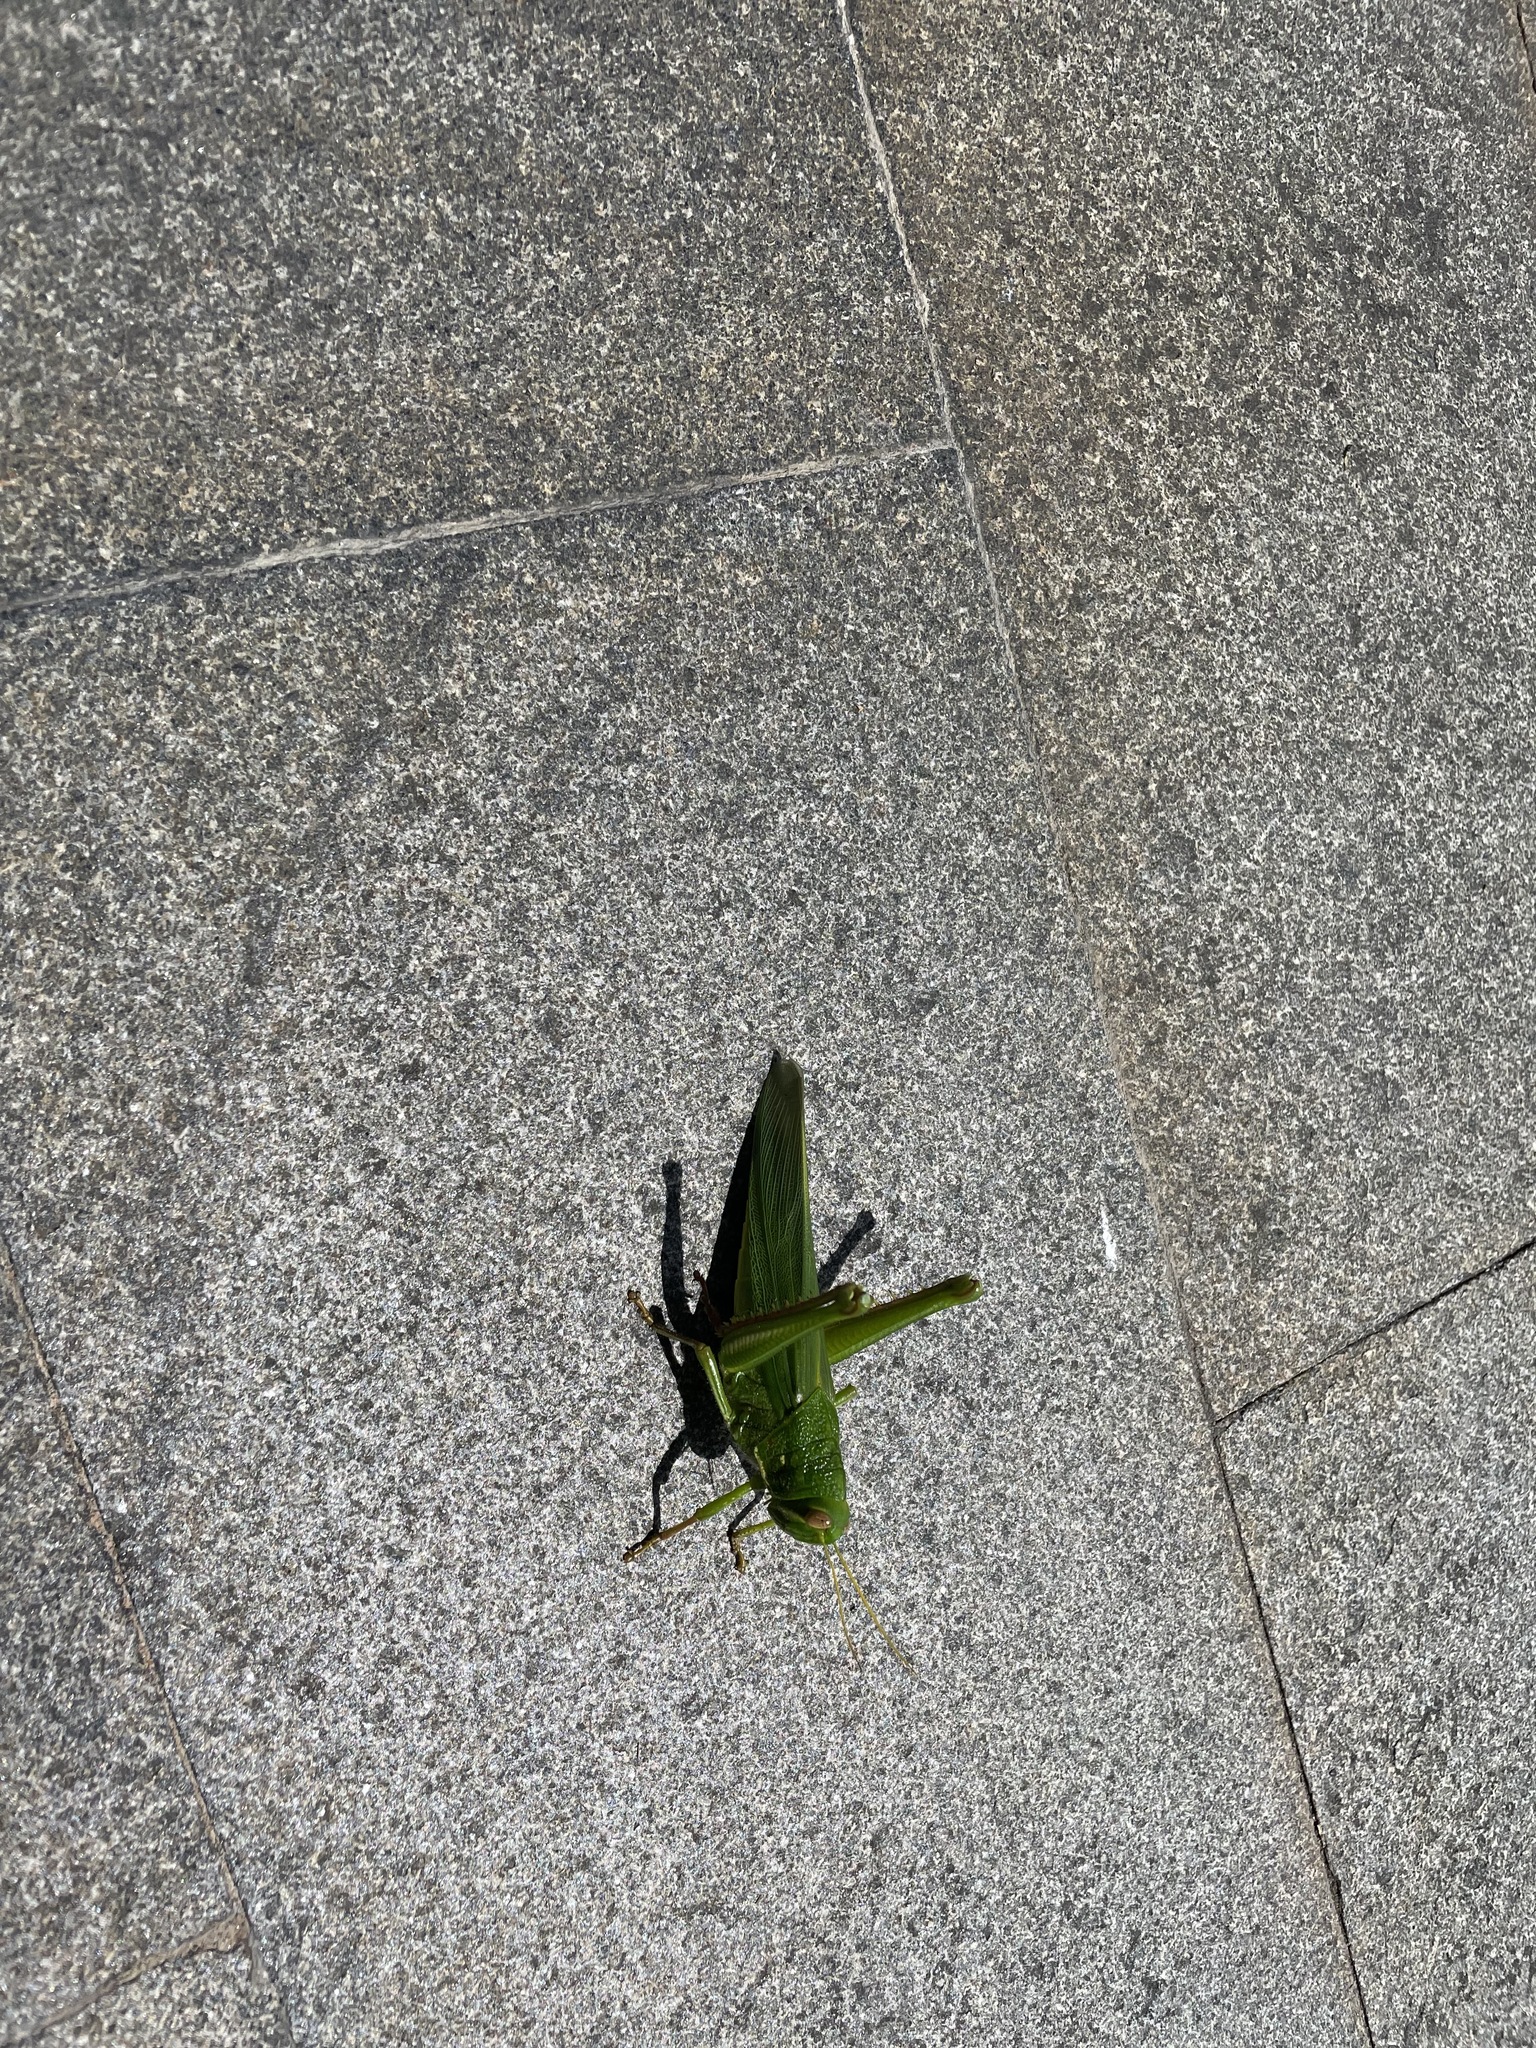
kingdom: Animalia
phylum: Arthropoda
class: Insecta
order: Orthoptera
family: Acrididae
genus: Chondracris
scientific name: Chondracris rosea
